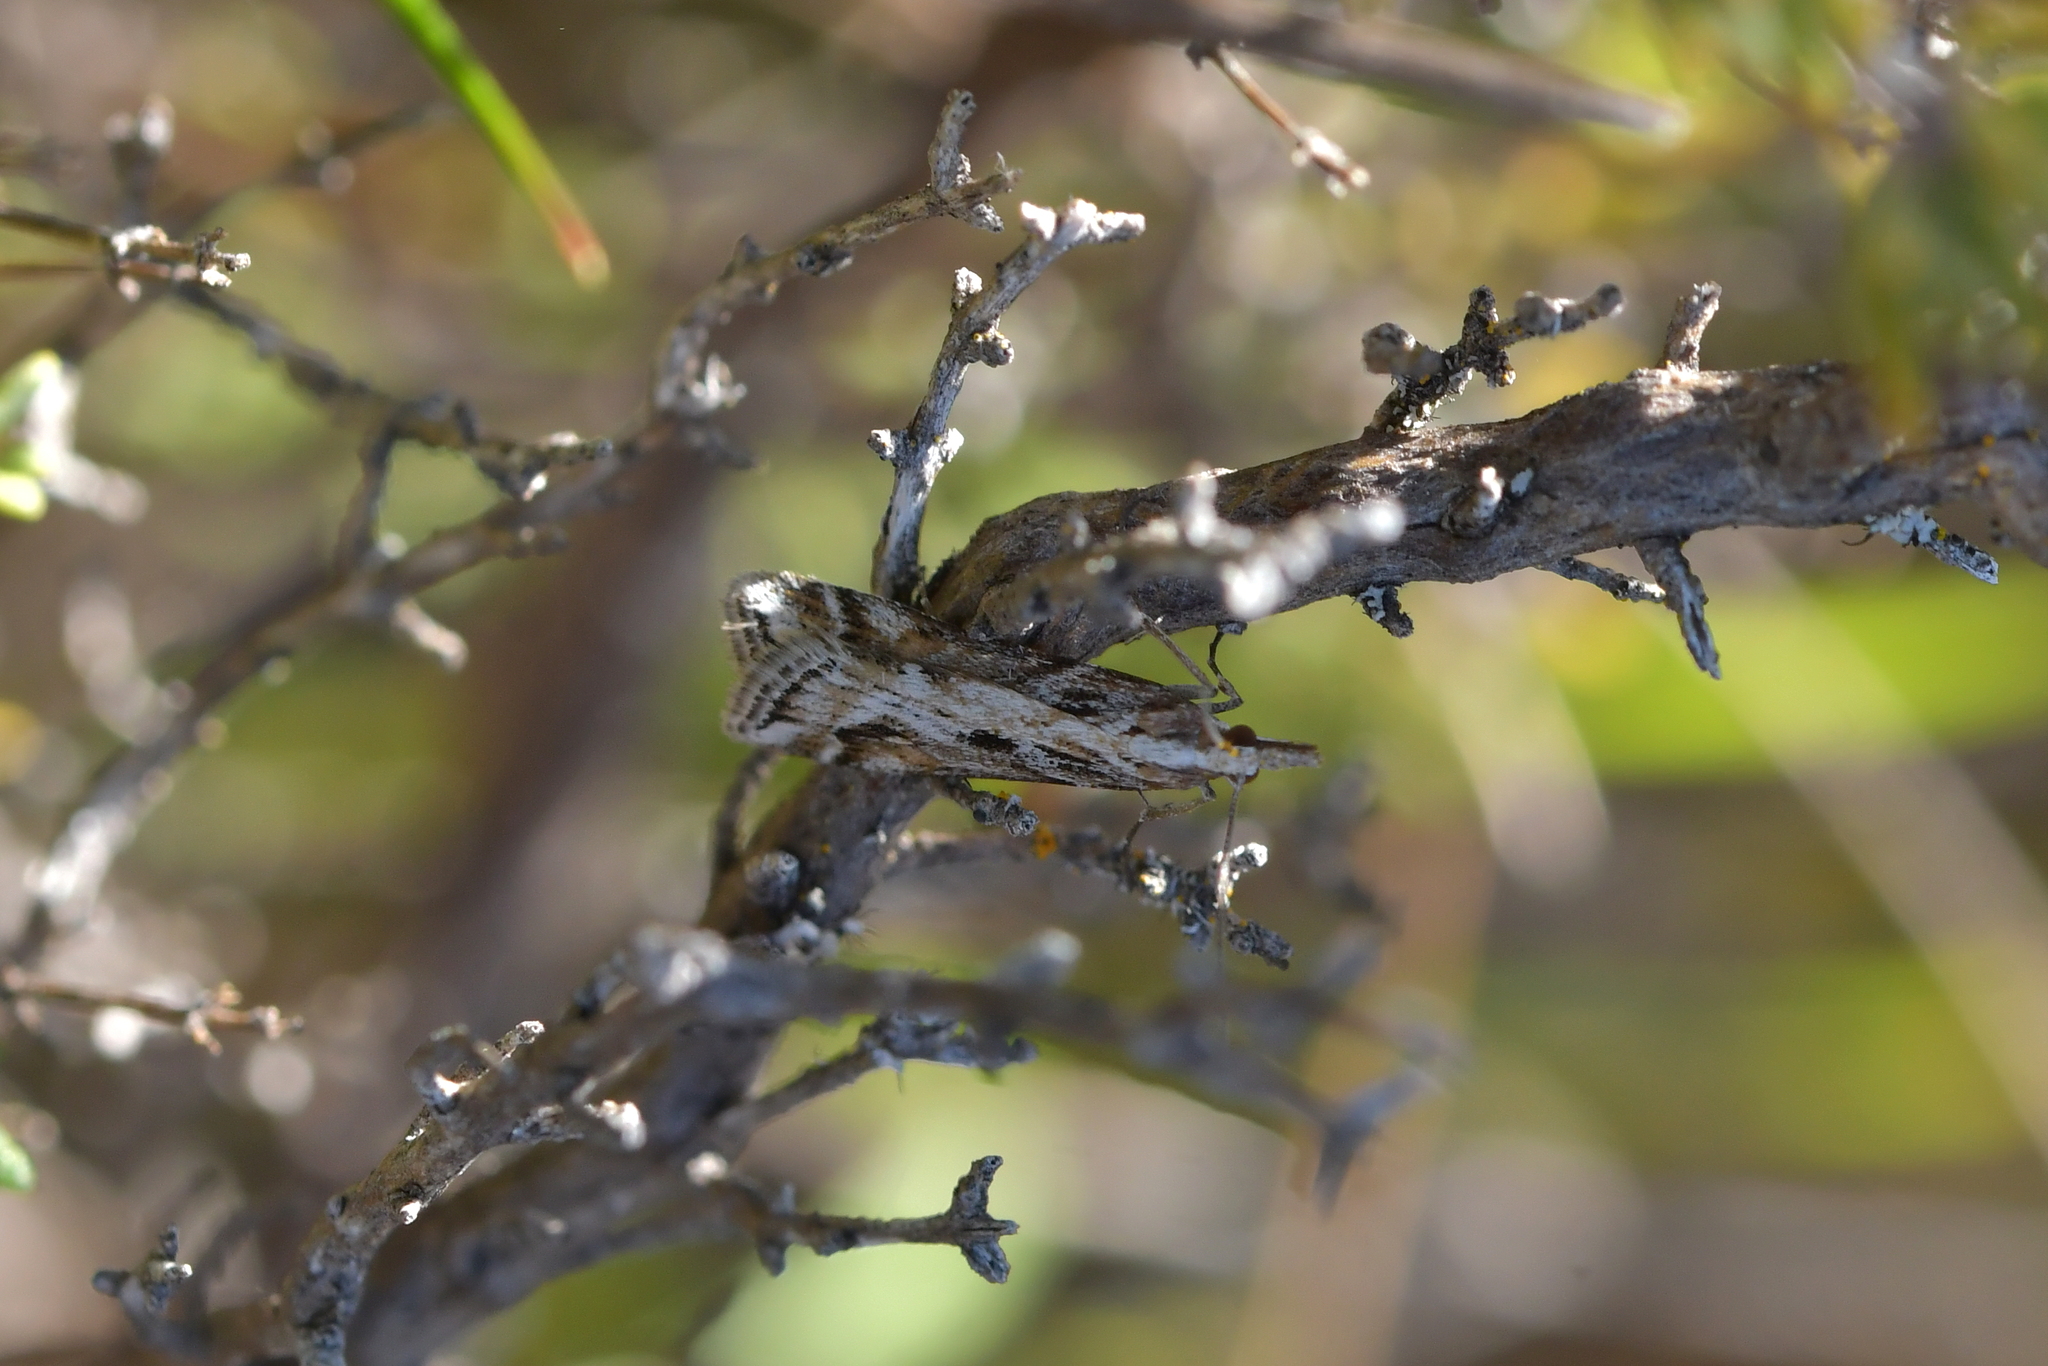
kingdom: Animalia
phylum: Arthropoda
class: Insecta
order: Lepidoptera
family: Crambidae
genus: Scoparia
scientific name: Scoparia exilis
